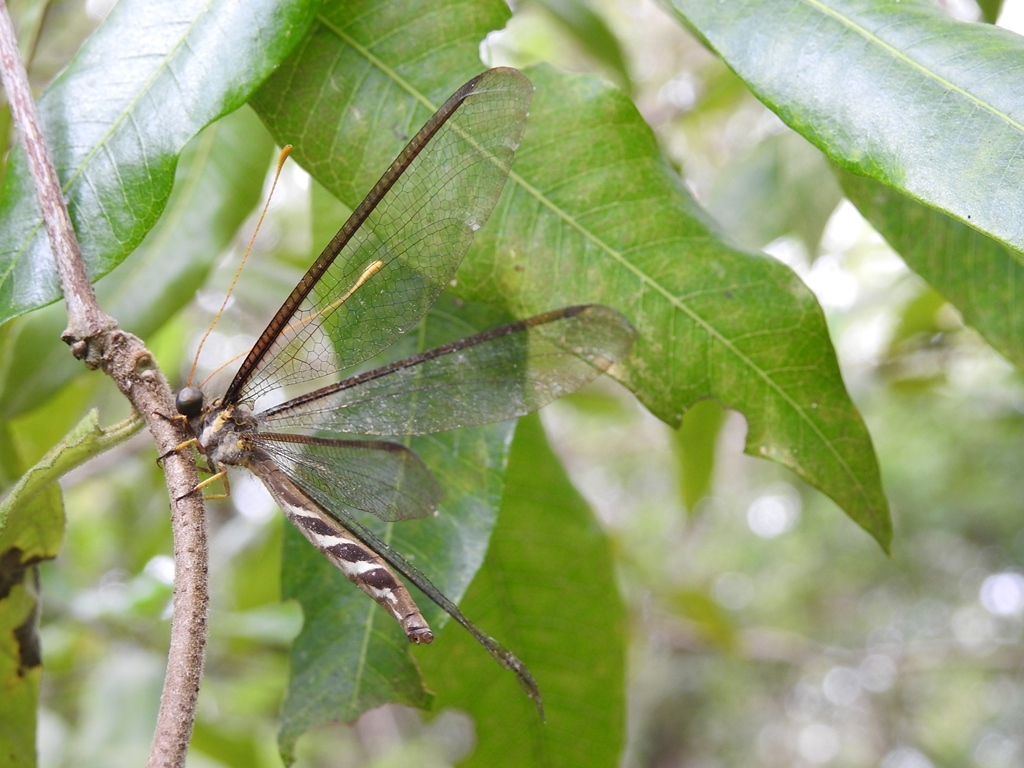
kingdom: Animalia
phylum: Arthropoda
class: Insecta
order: Neuroptera
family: Ascalaphidae
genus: Haploglenius
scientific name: Haploglenius flavicornis
